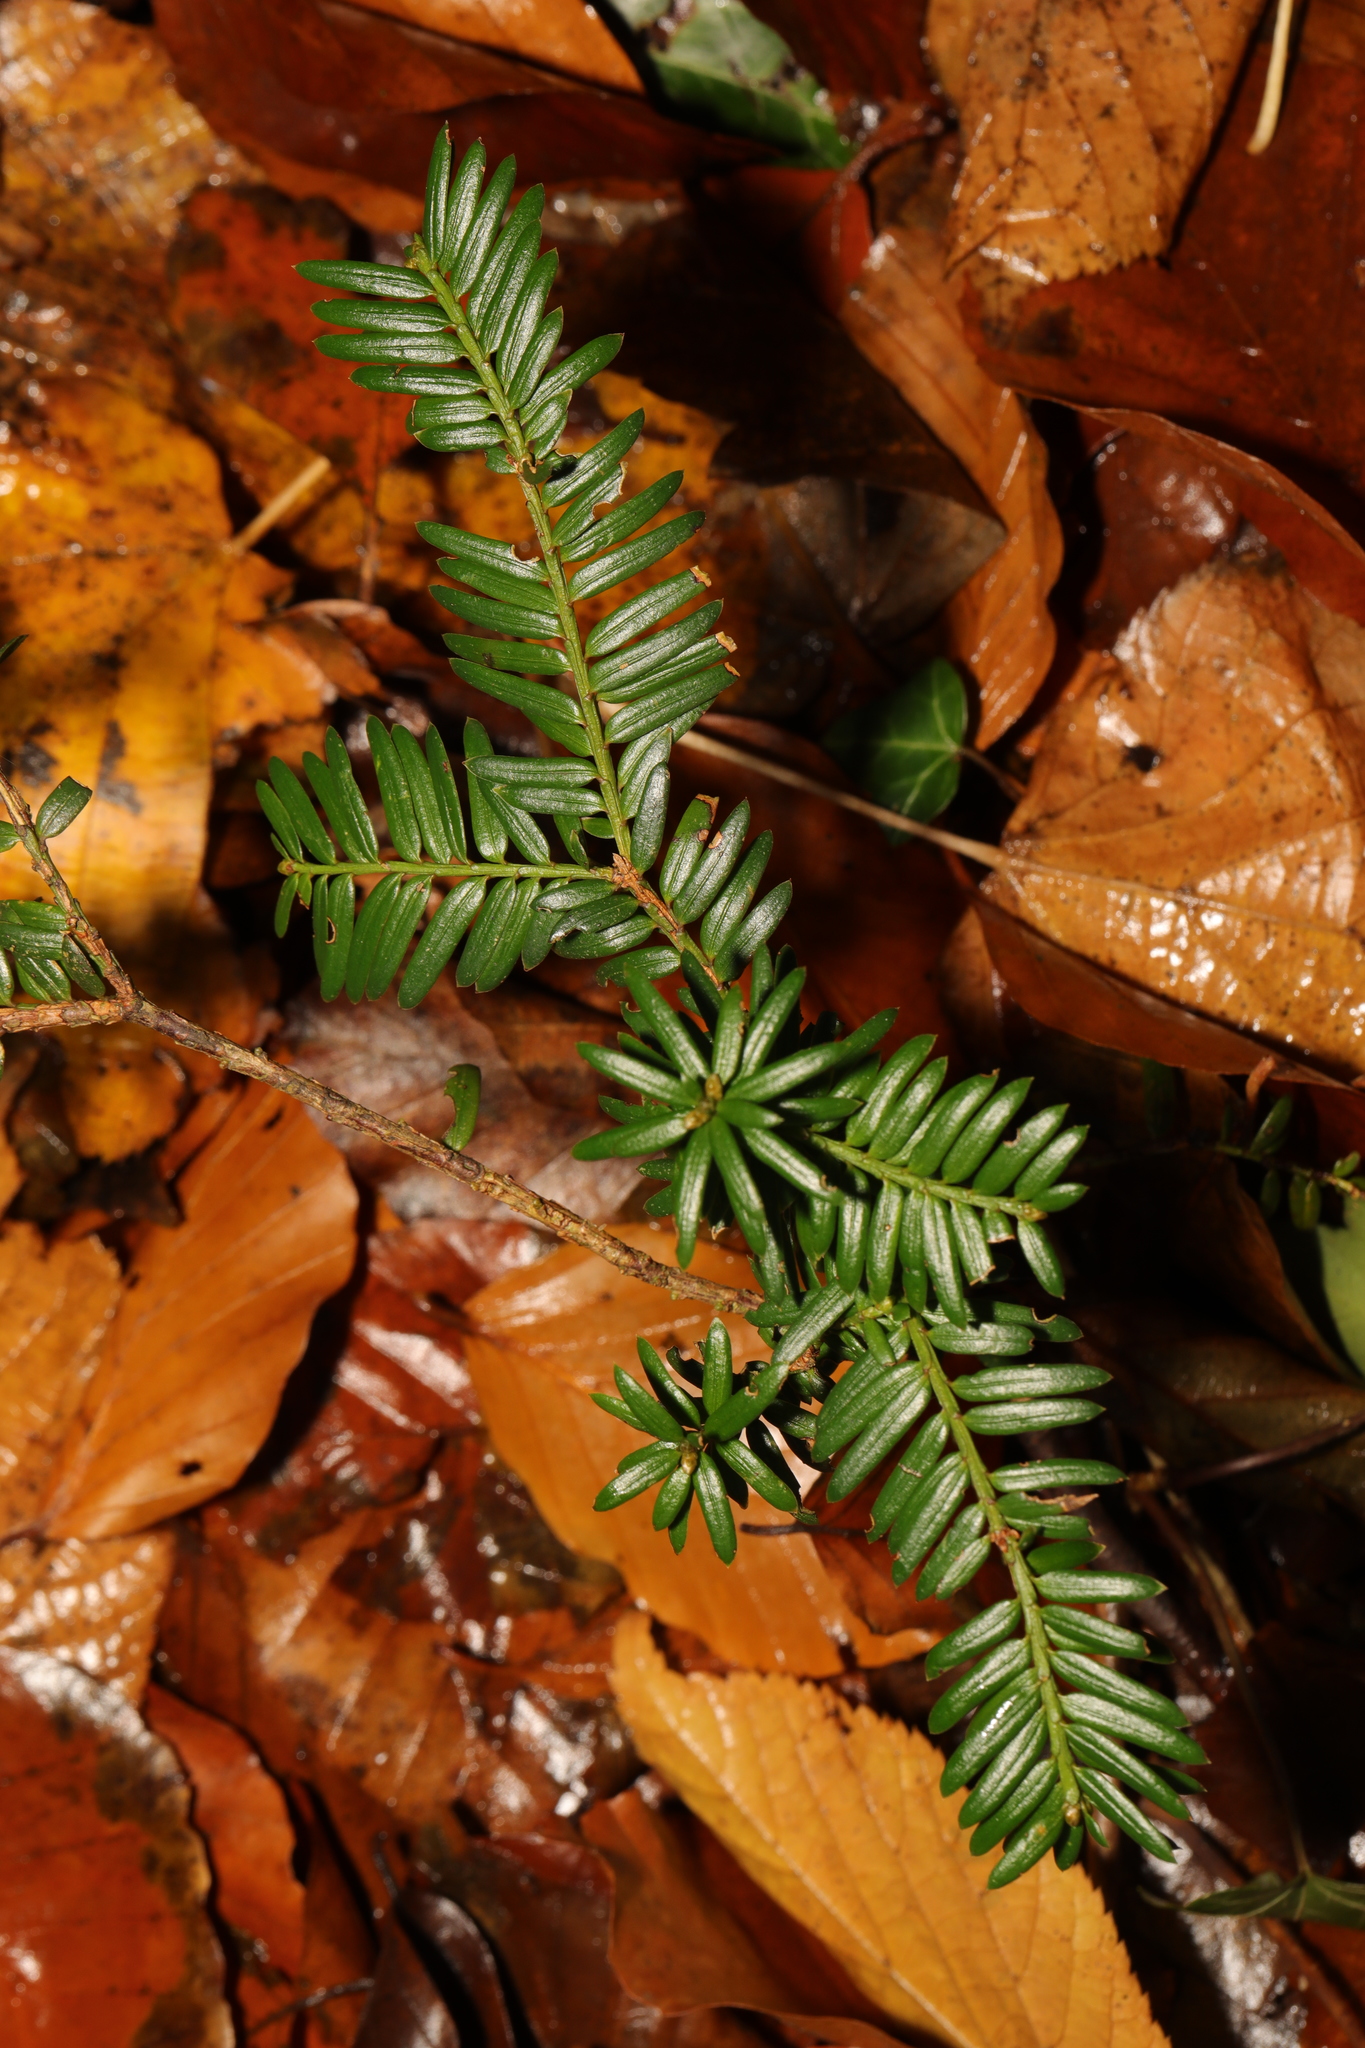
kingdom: Plantae
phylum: Tracheophyta
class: Pinopsida
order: Pinales
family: Taxaceae
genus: Taxus
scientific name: Taxus baccata
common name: Yew
